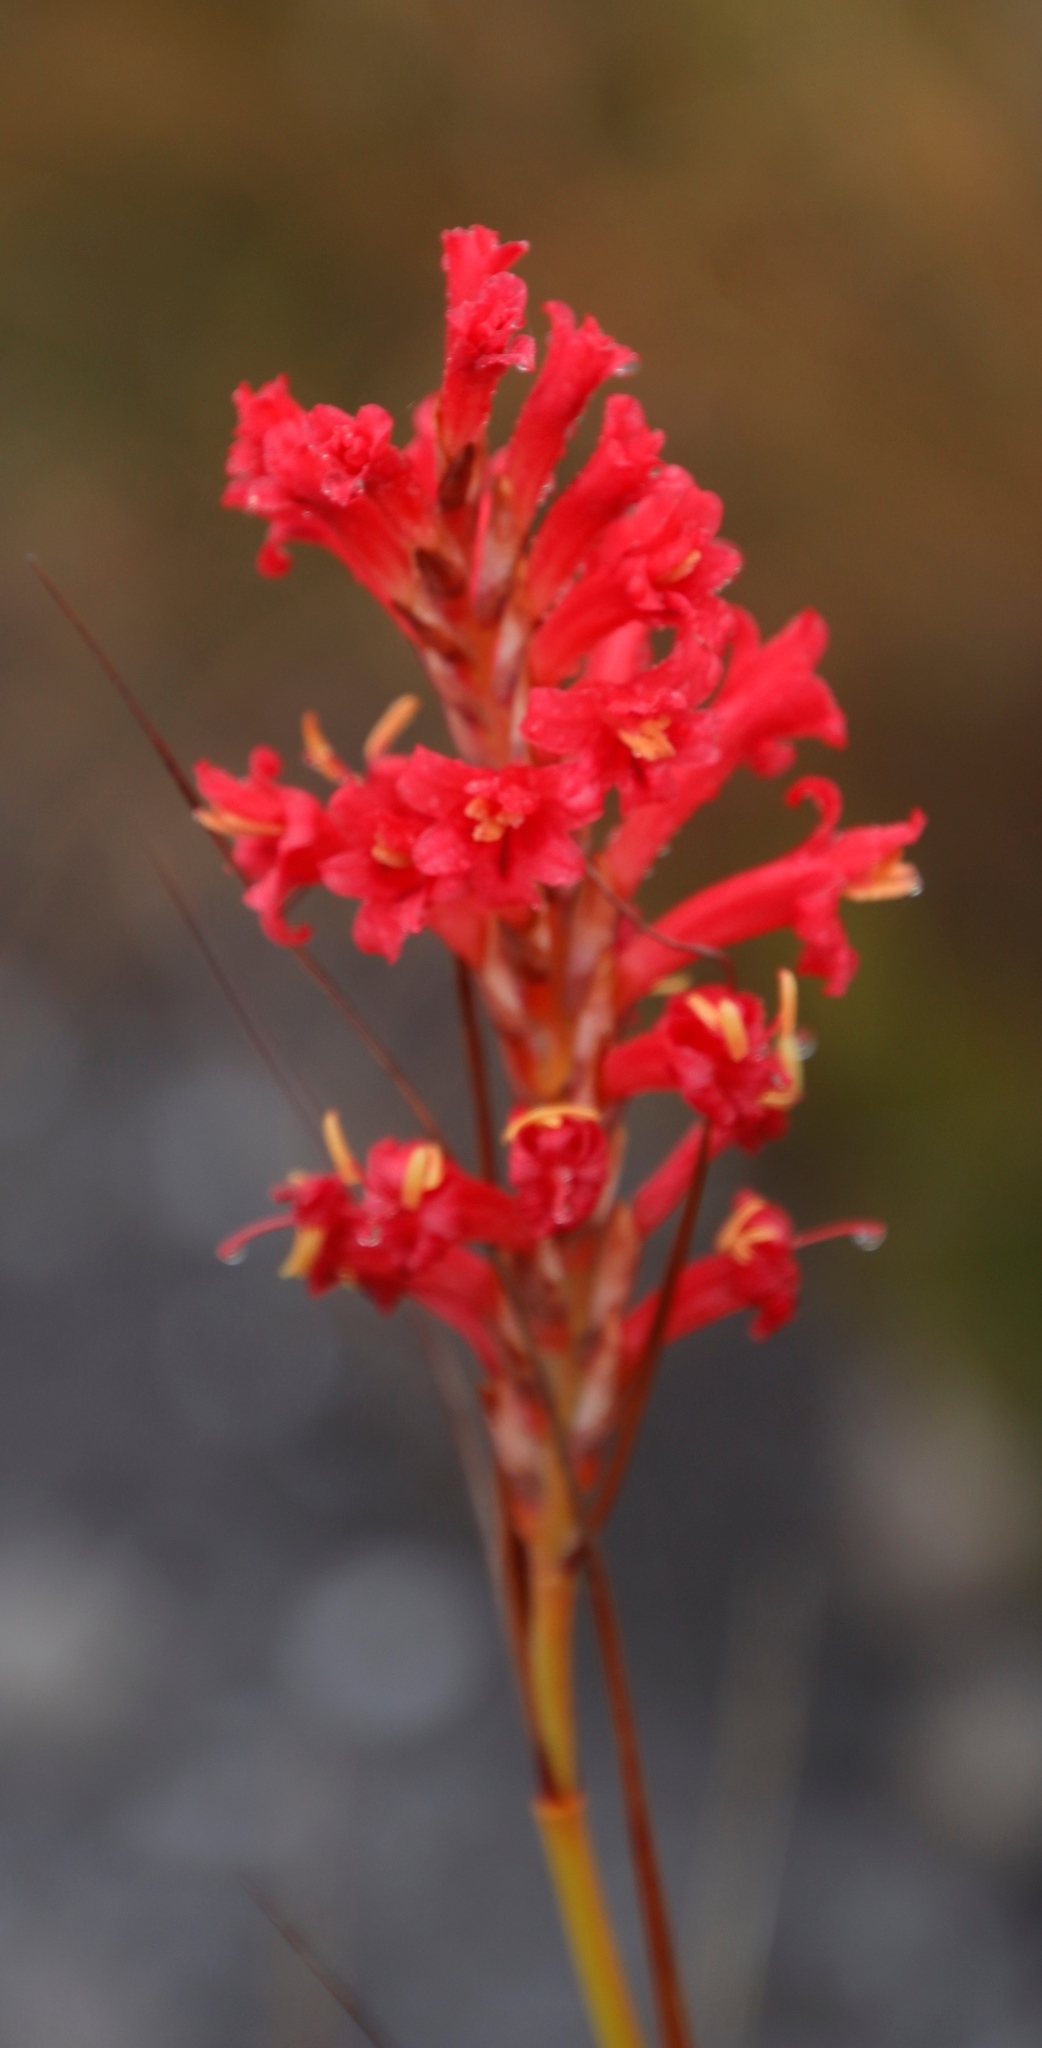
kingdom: Plantae
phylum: Tracheophyta
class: Liliopsida
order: Asparagales
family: Iridaceae
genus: Tritoniopsis
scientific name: Tritoniopsis triticea
